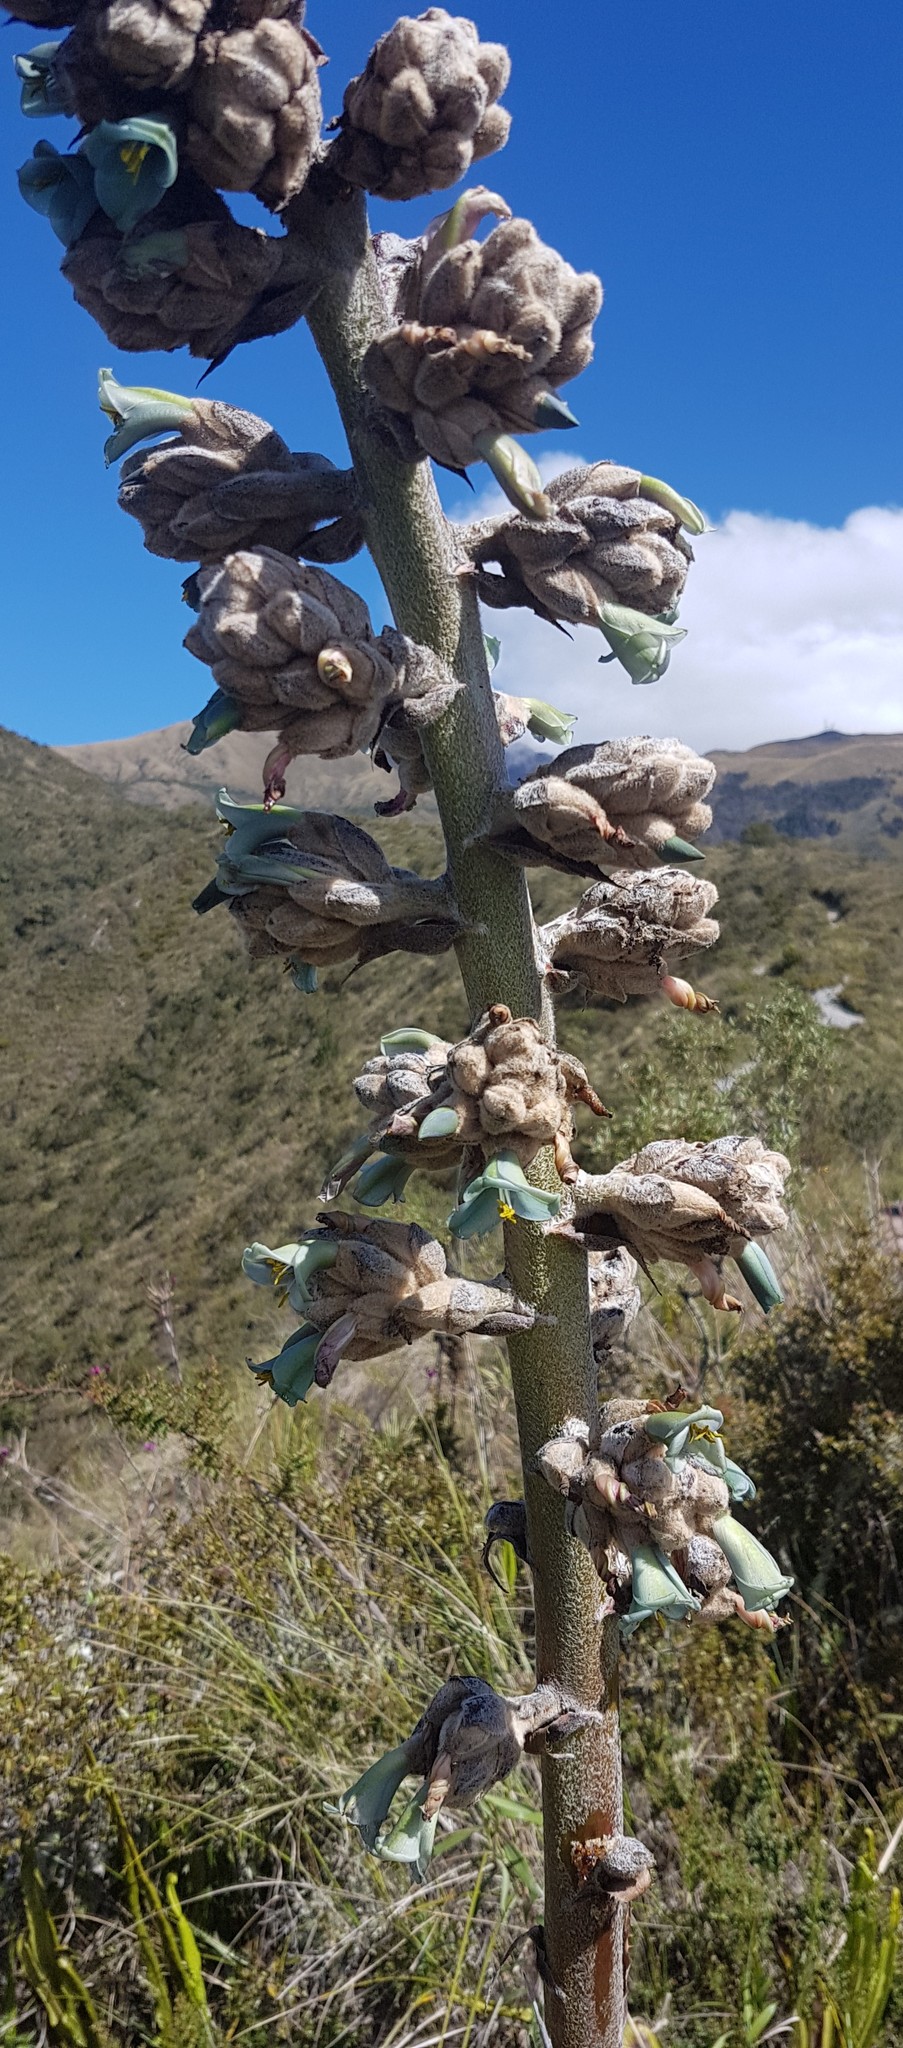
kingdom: Plantae
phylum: Tracheophyta
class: Liliopsida
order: Poales
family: Bromeliaceae
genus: Puya
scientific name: Puya glomerifera
